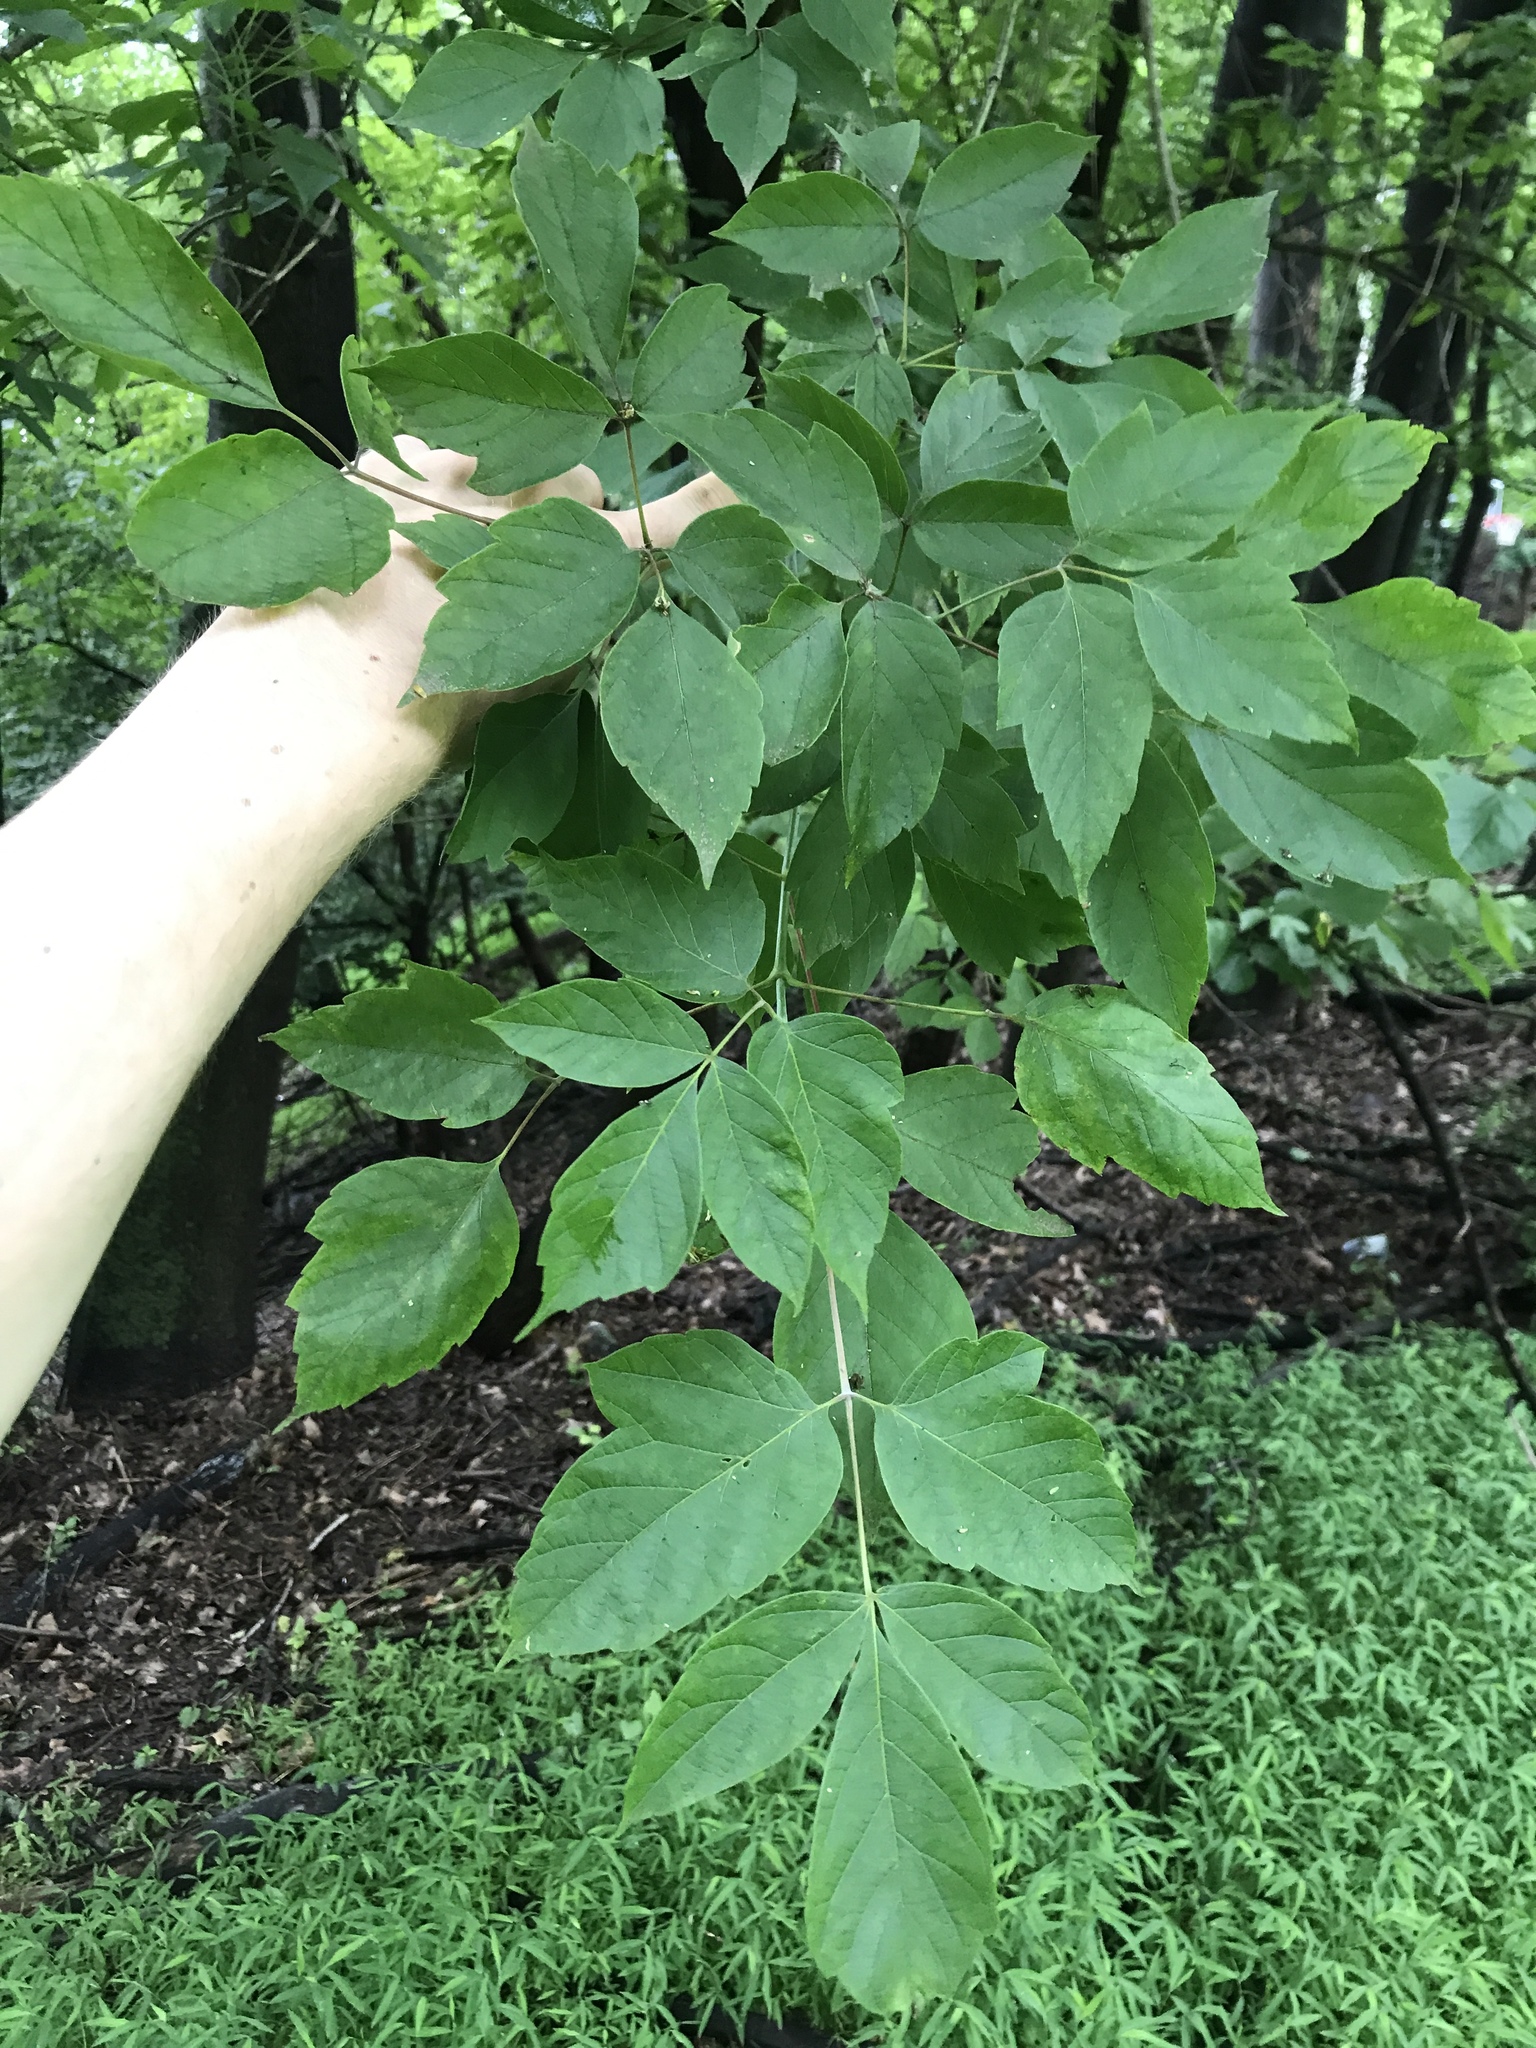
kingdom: Plantae
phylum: Tracheophyta
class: Magnoliopsida
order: Sapindales
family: Sapindaceae
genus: Acer
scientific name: Acer negundo
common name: Ashleaf maple
